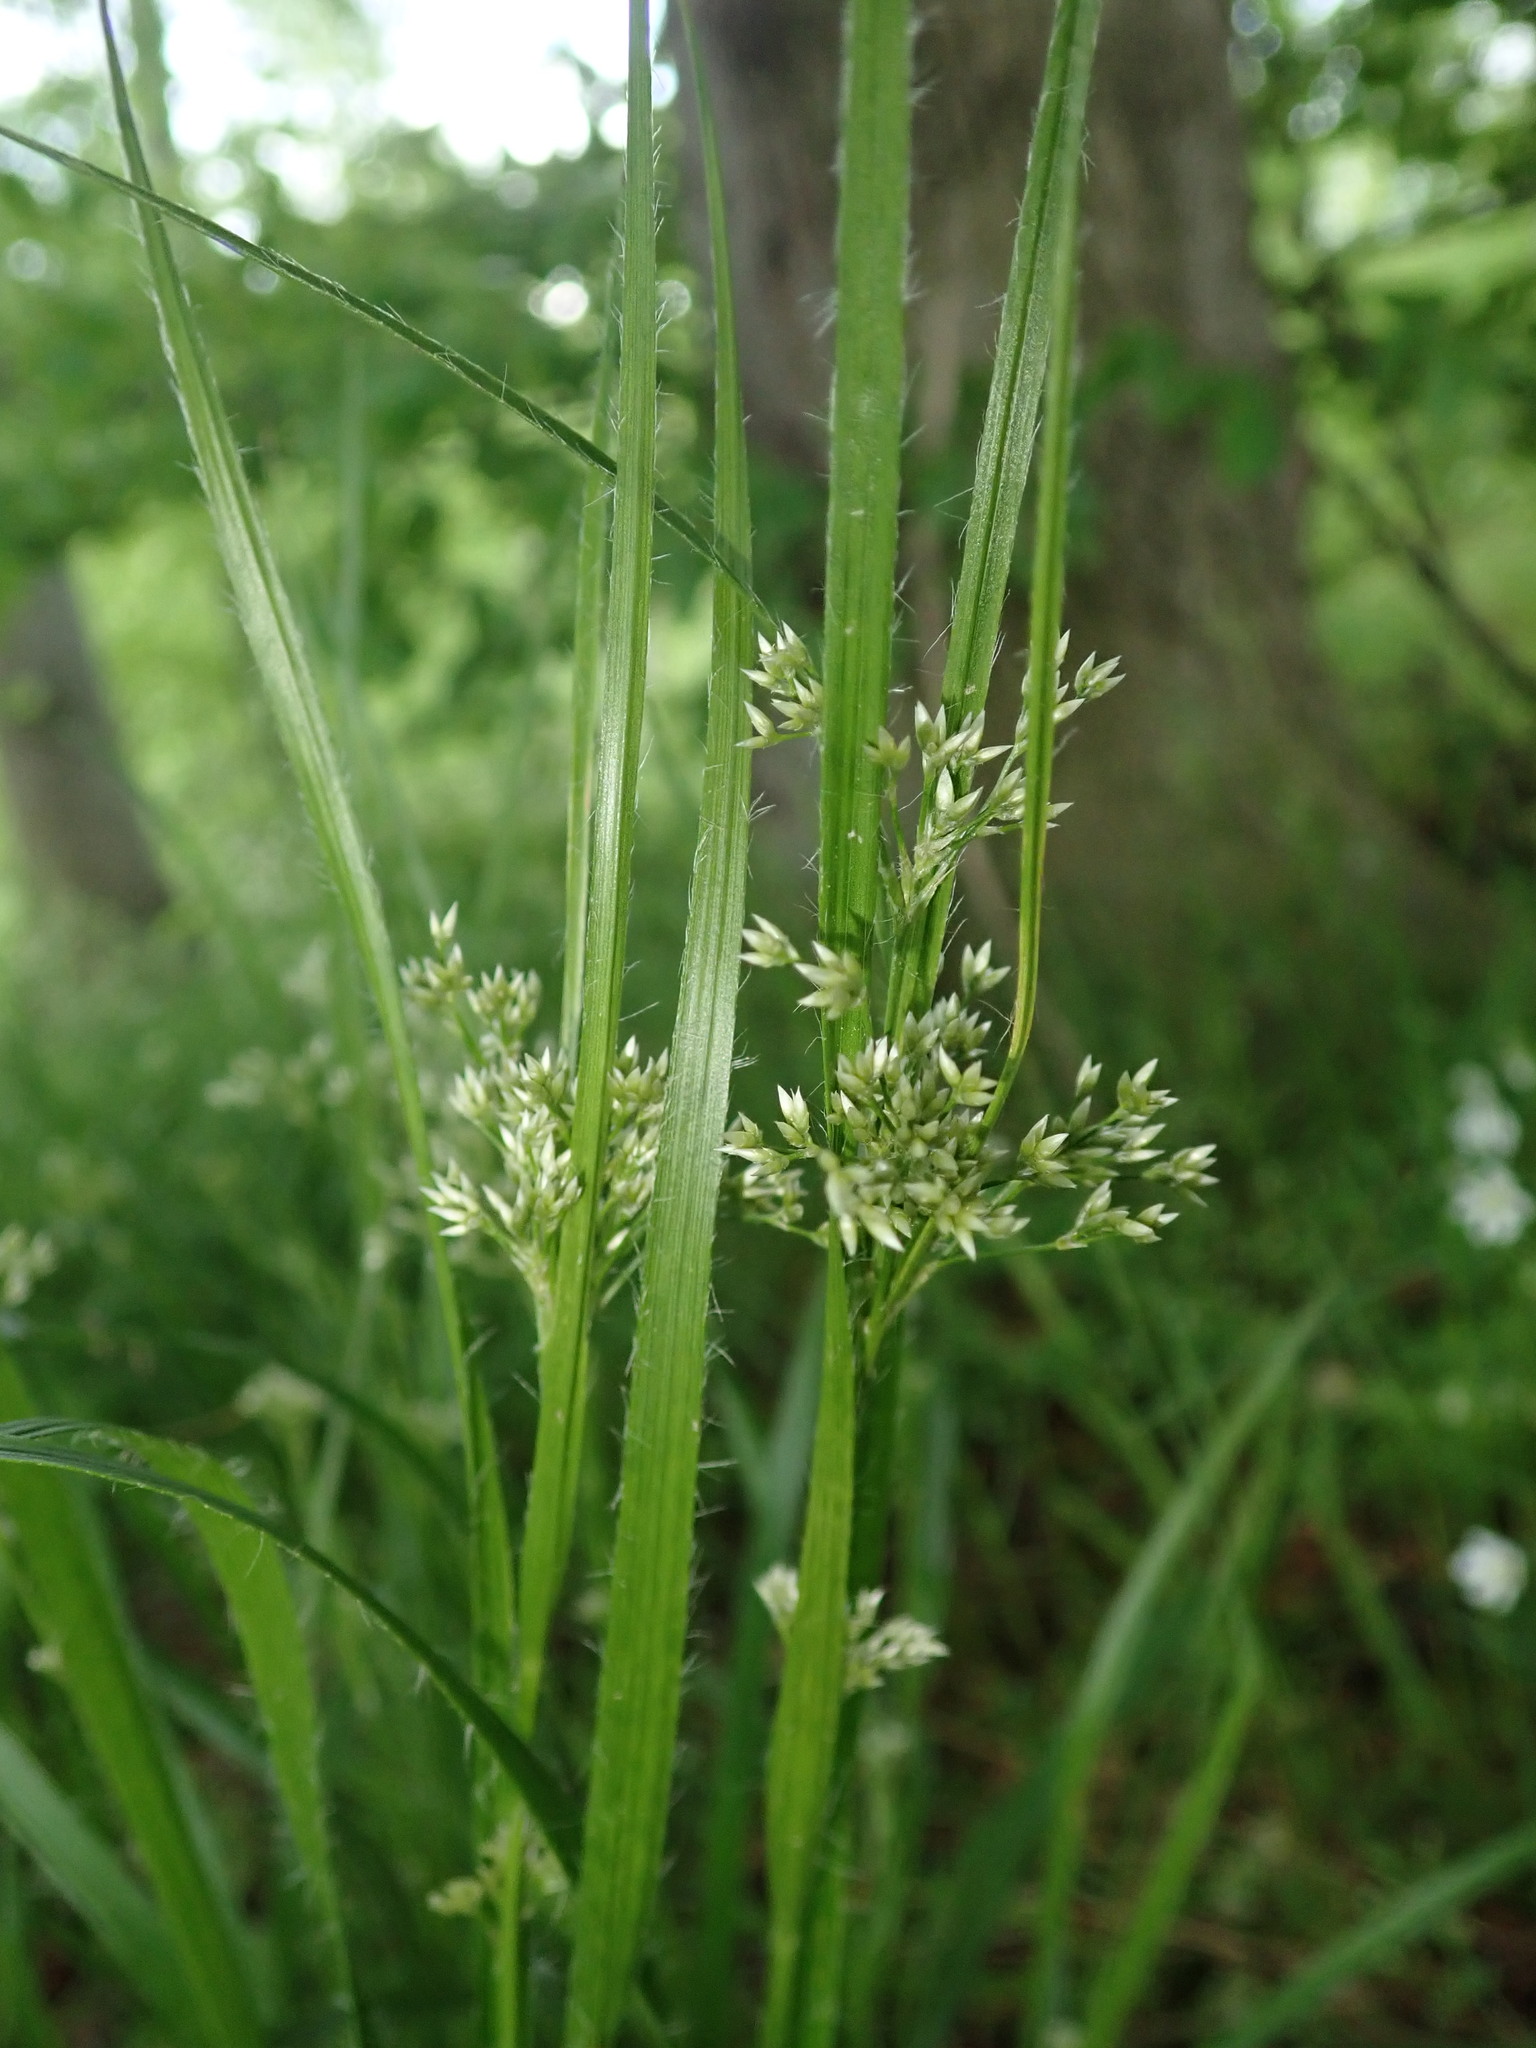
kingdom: Plantae
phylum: Tracheophyta
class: Liliopsida
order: Poales
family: Juncaceae
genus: Luzula
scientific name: Luzula luzuloides
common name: White wood-rush
